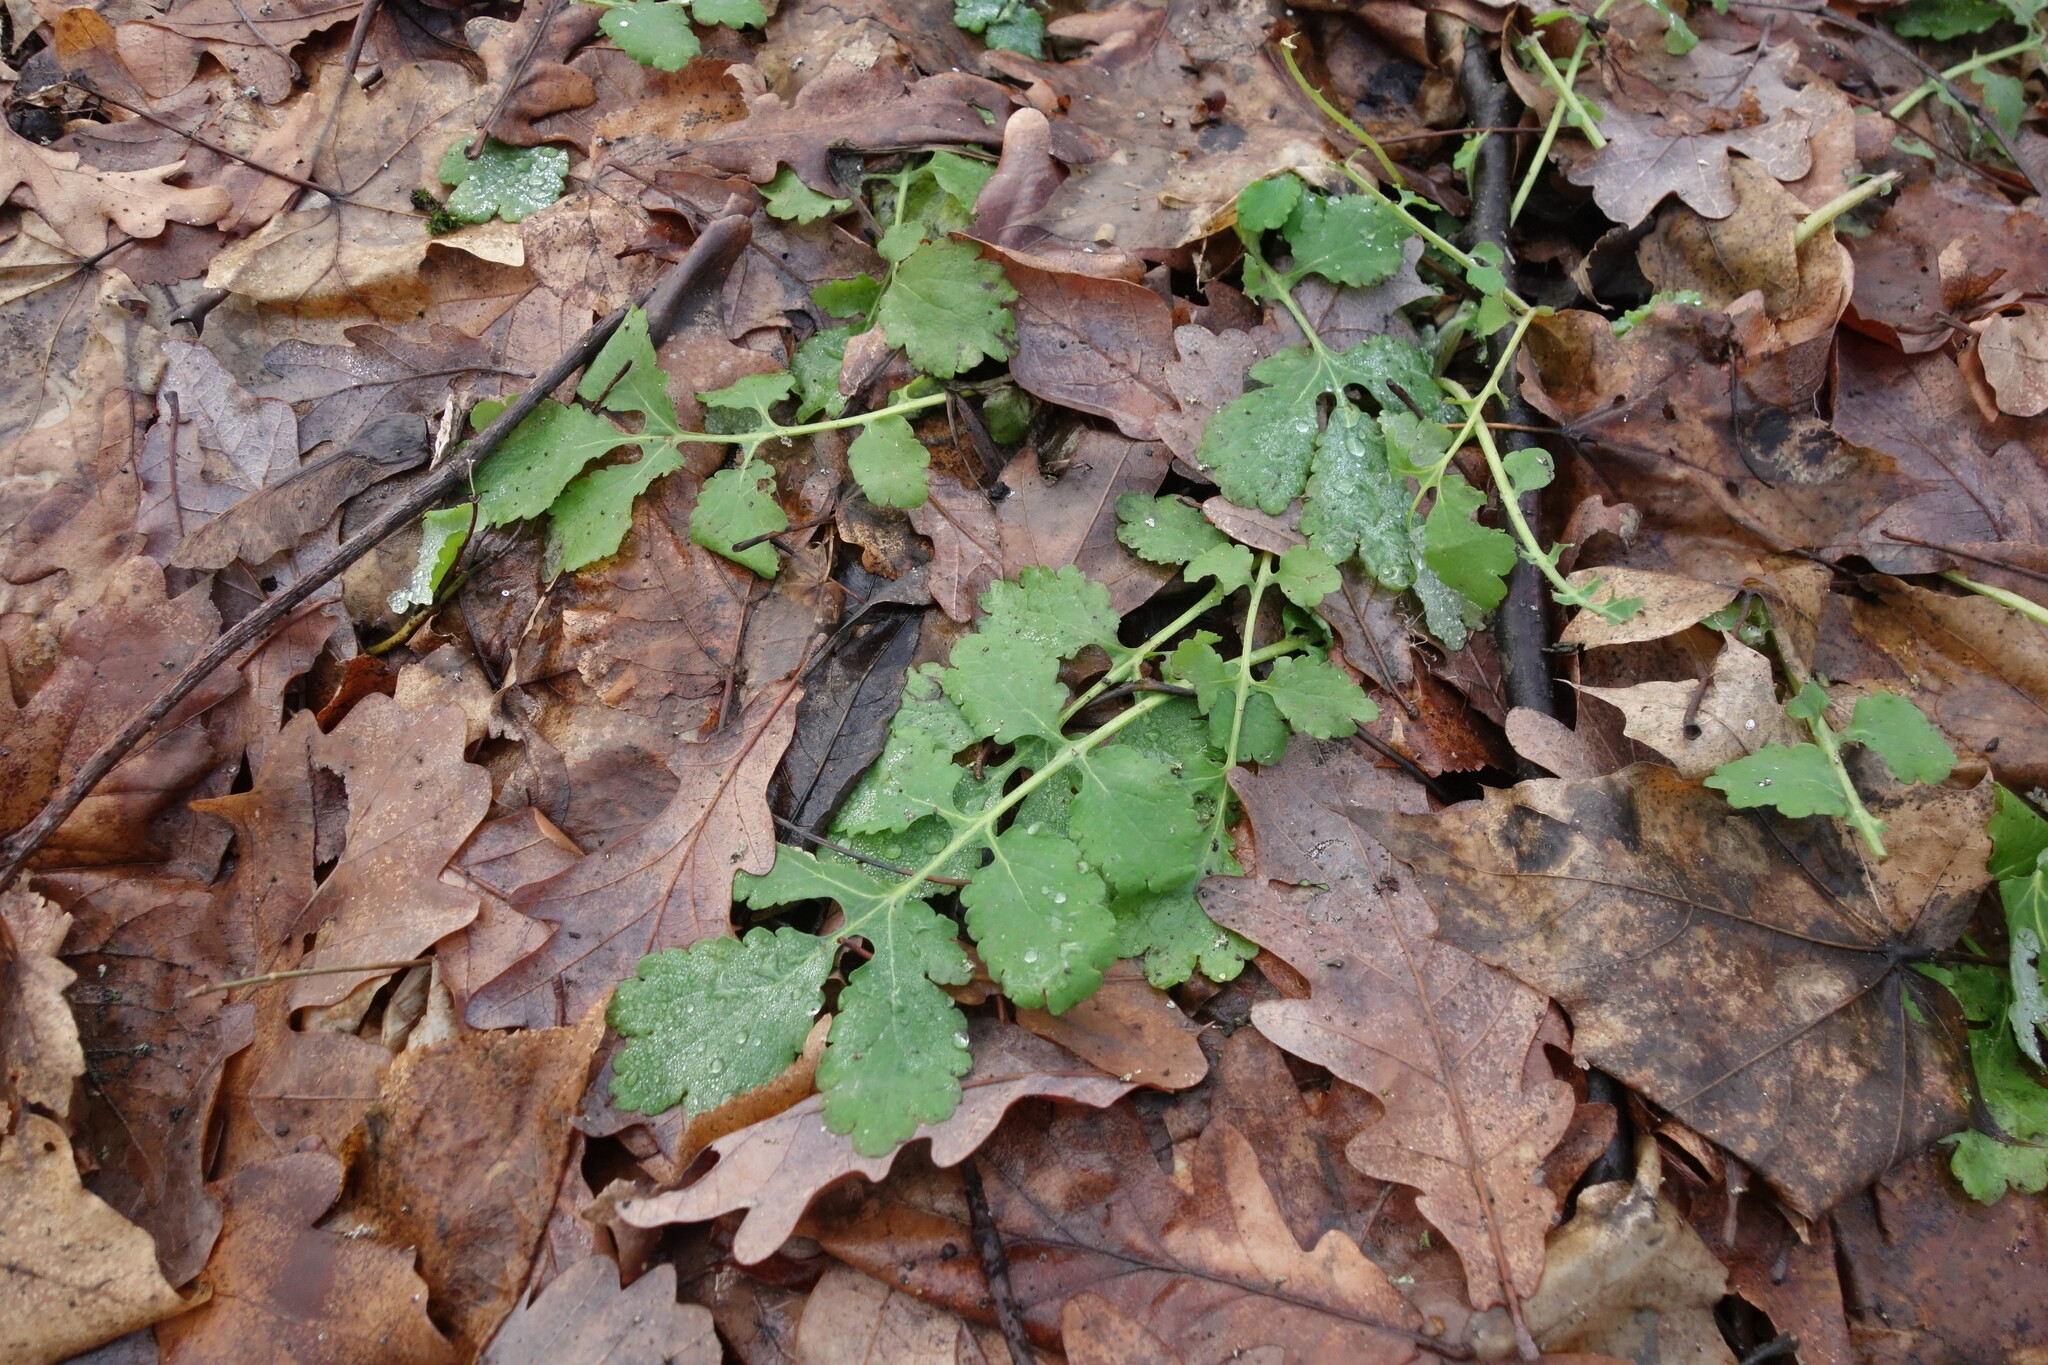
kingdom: Plantae
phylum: Tracheophyta
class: Magnoliopsida
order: Ranunculales
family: Papaveraceae
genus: Chelidonium
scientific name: Chelidonium majus
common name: Greater celandine
